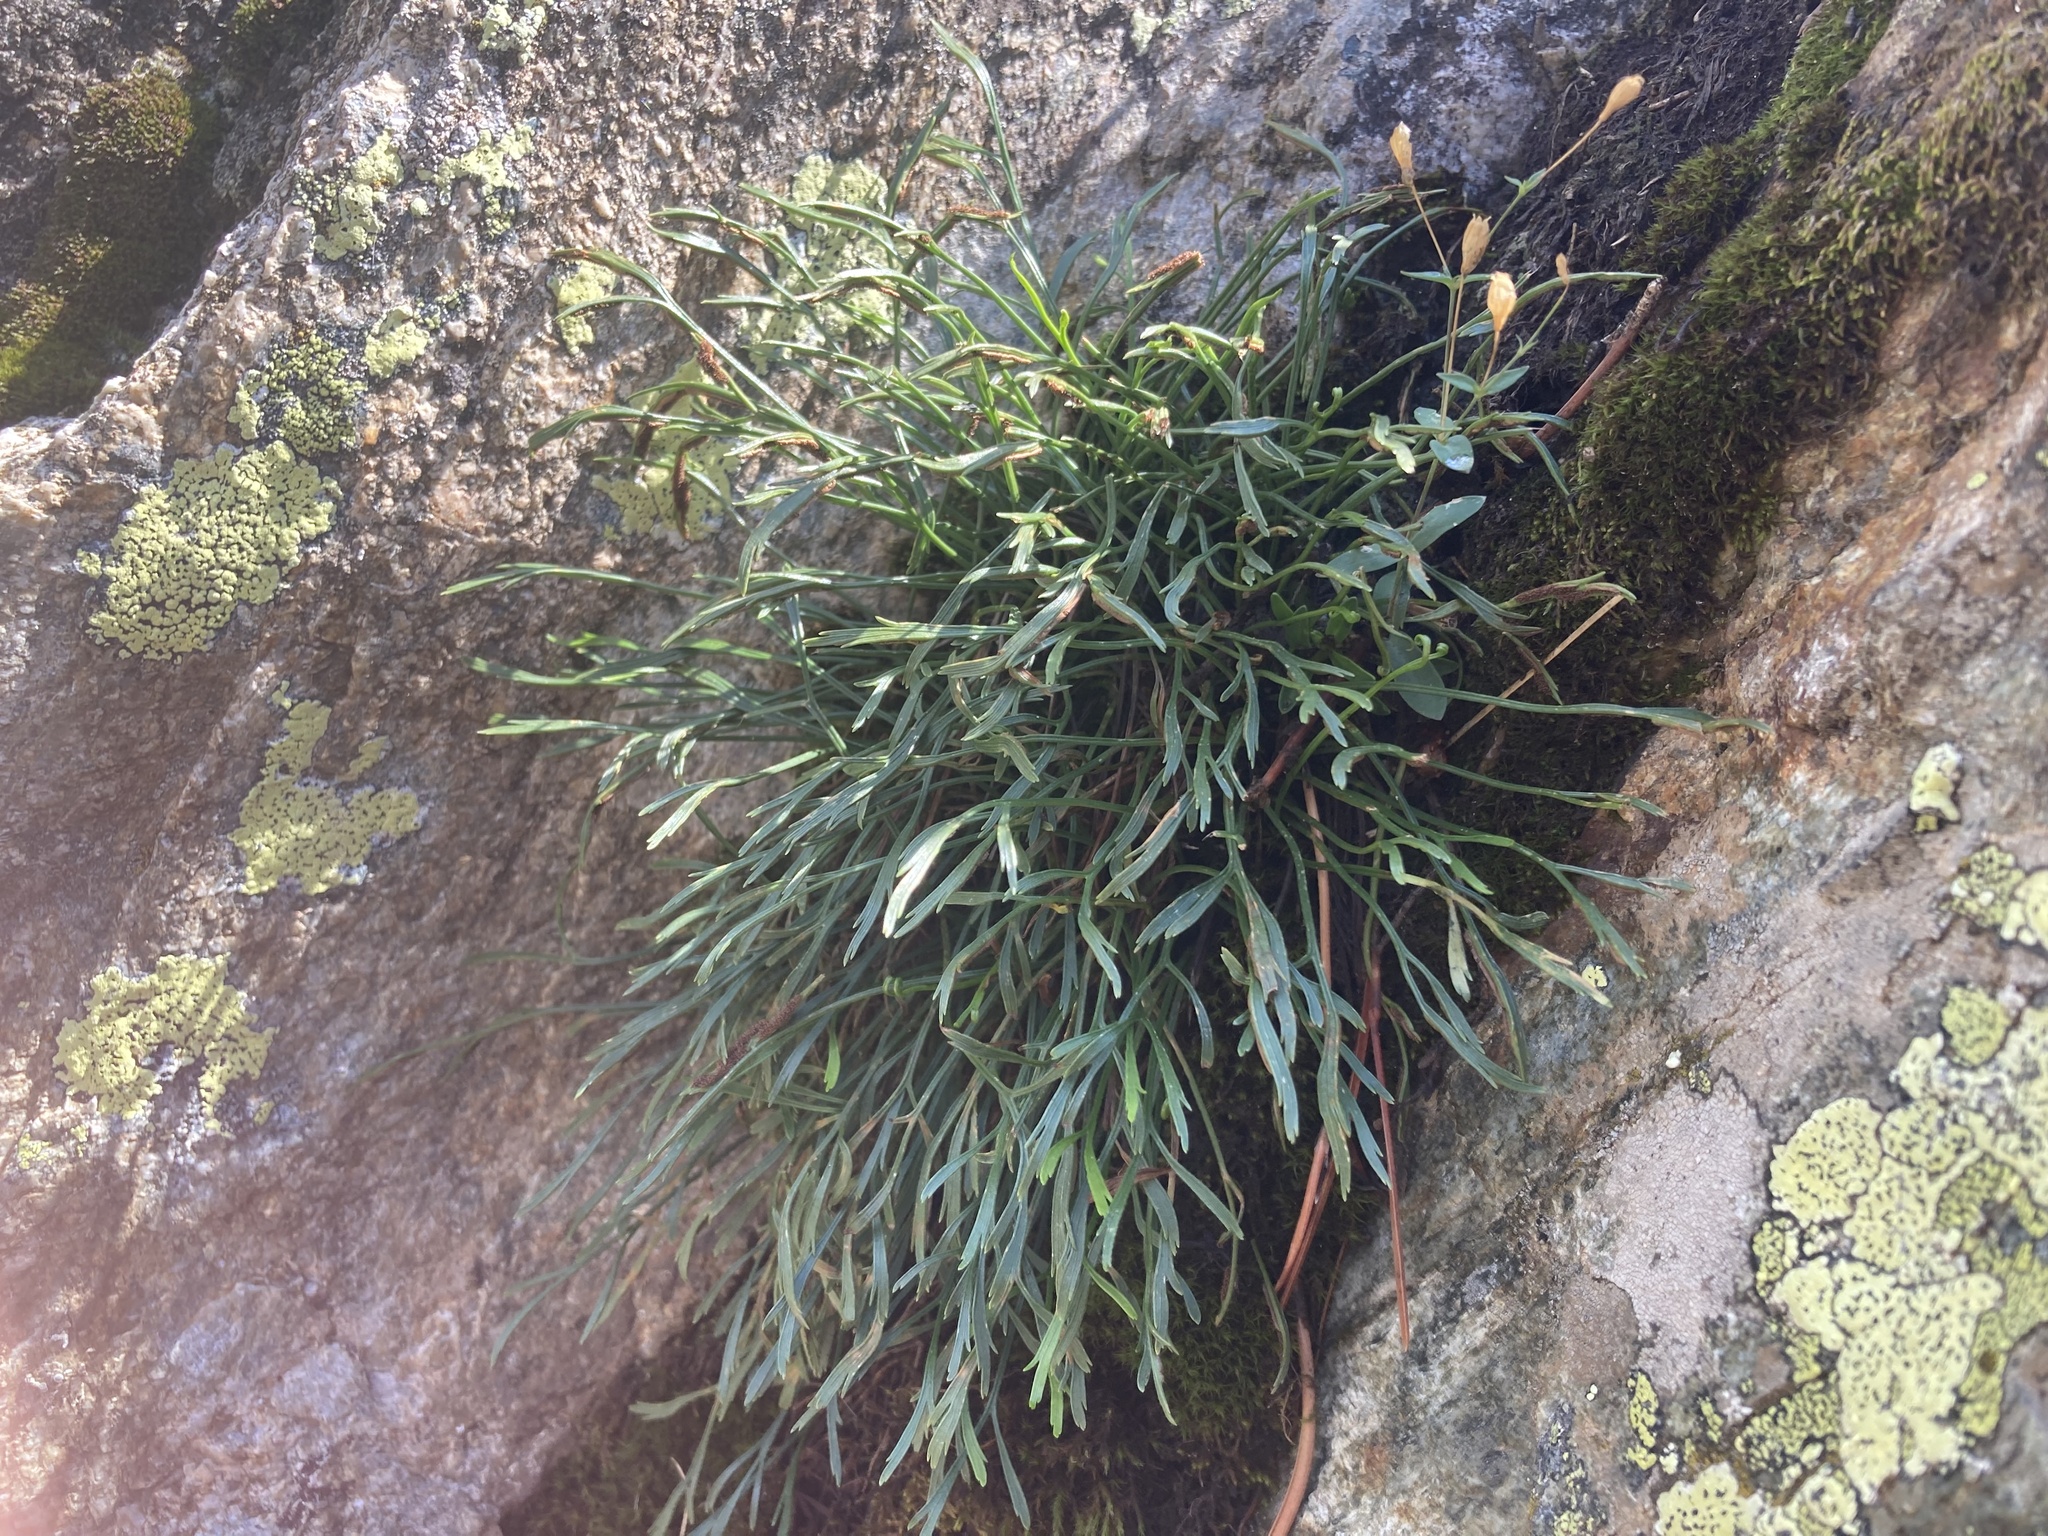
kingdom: Plantae
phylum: Tracheophyta
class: Polypodiopsida
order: Polypodiales
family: Aspleniaceae
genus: Asplenium
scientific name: Asplenium septentrionale
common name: Forked spleenwort
